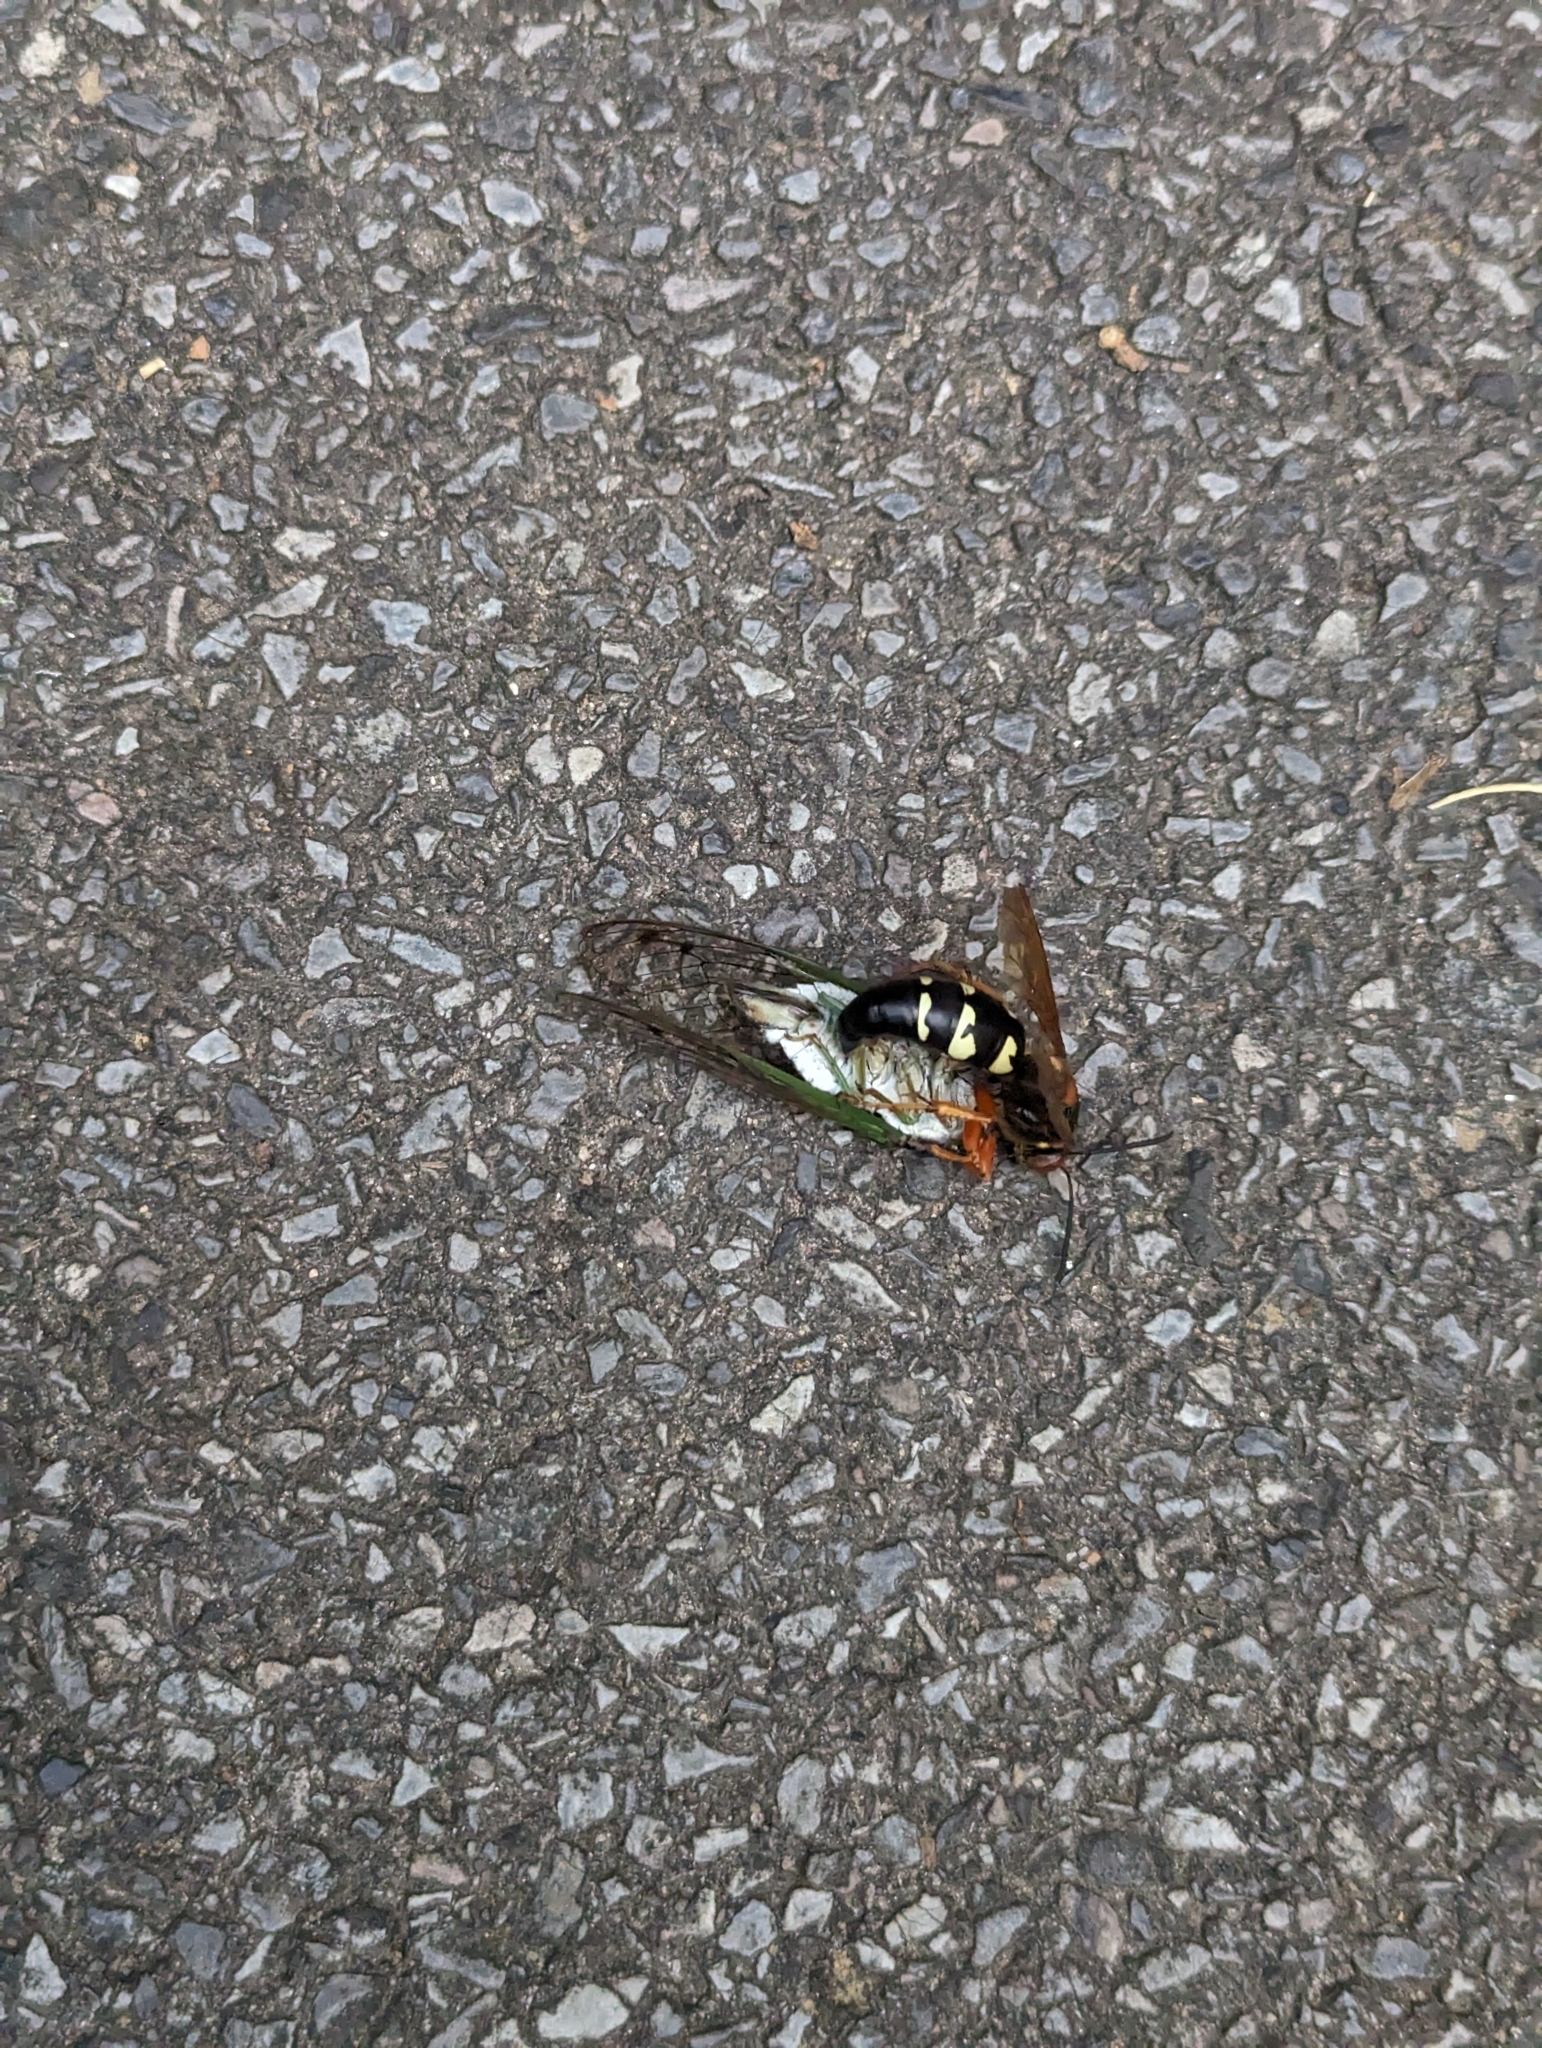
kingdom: Animalia
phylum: Arthropoda
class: Insecta
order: Hymenoptera
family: Crabronidae
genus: Sphecius
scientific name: Sphecius speciosus
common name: Cicada killer
